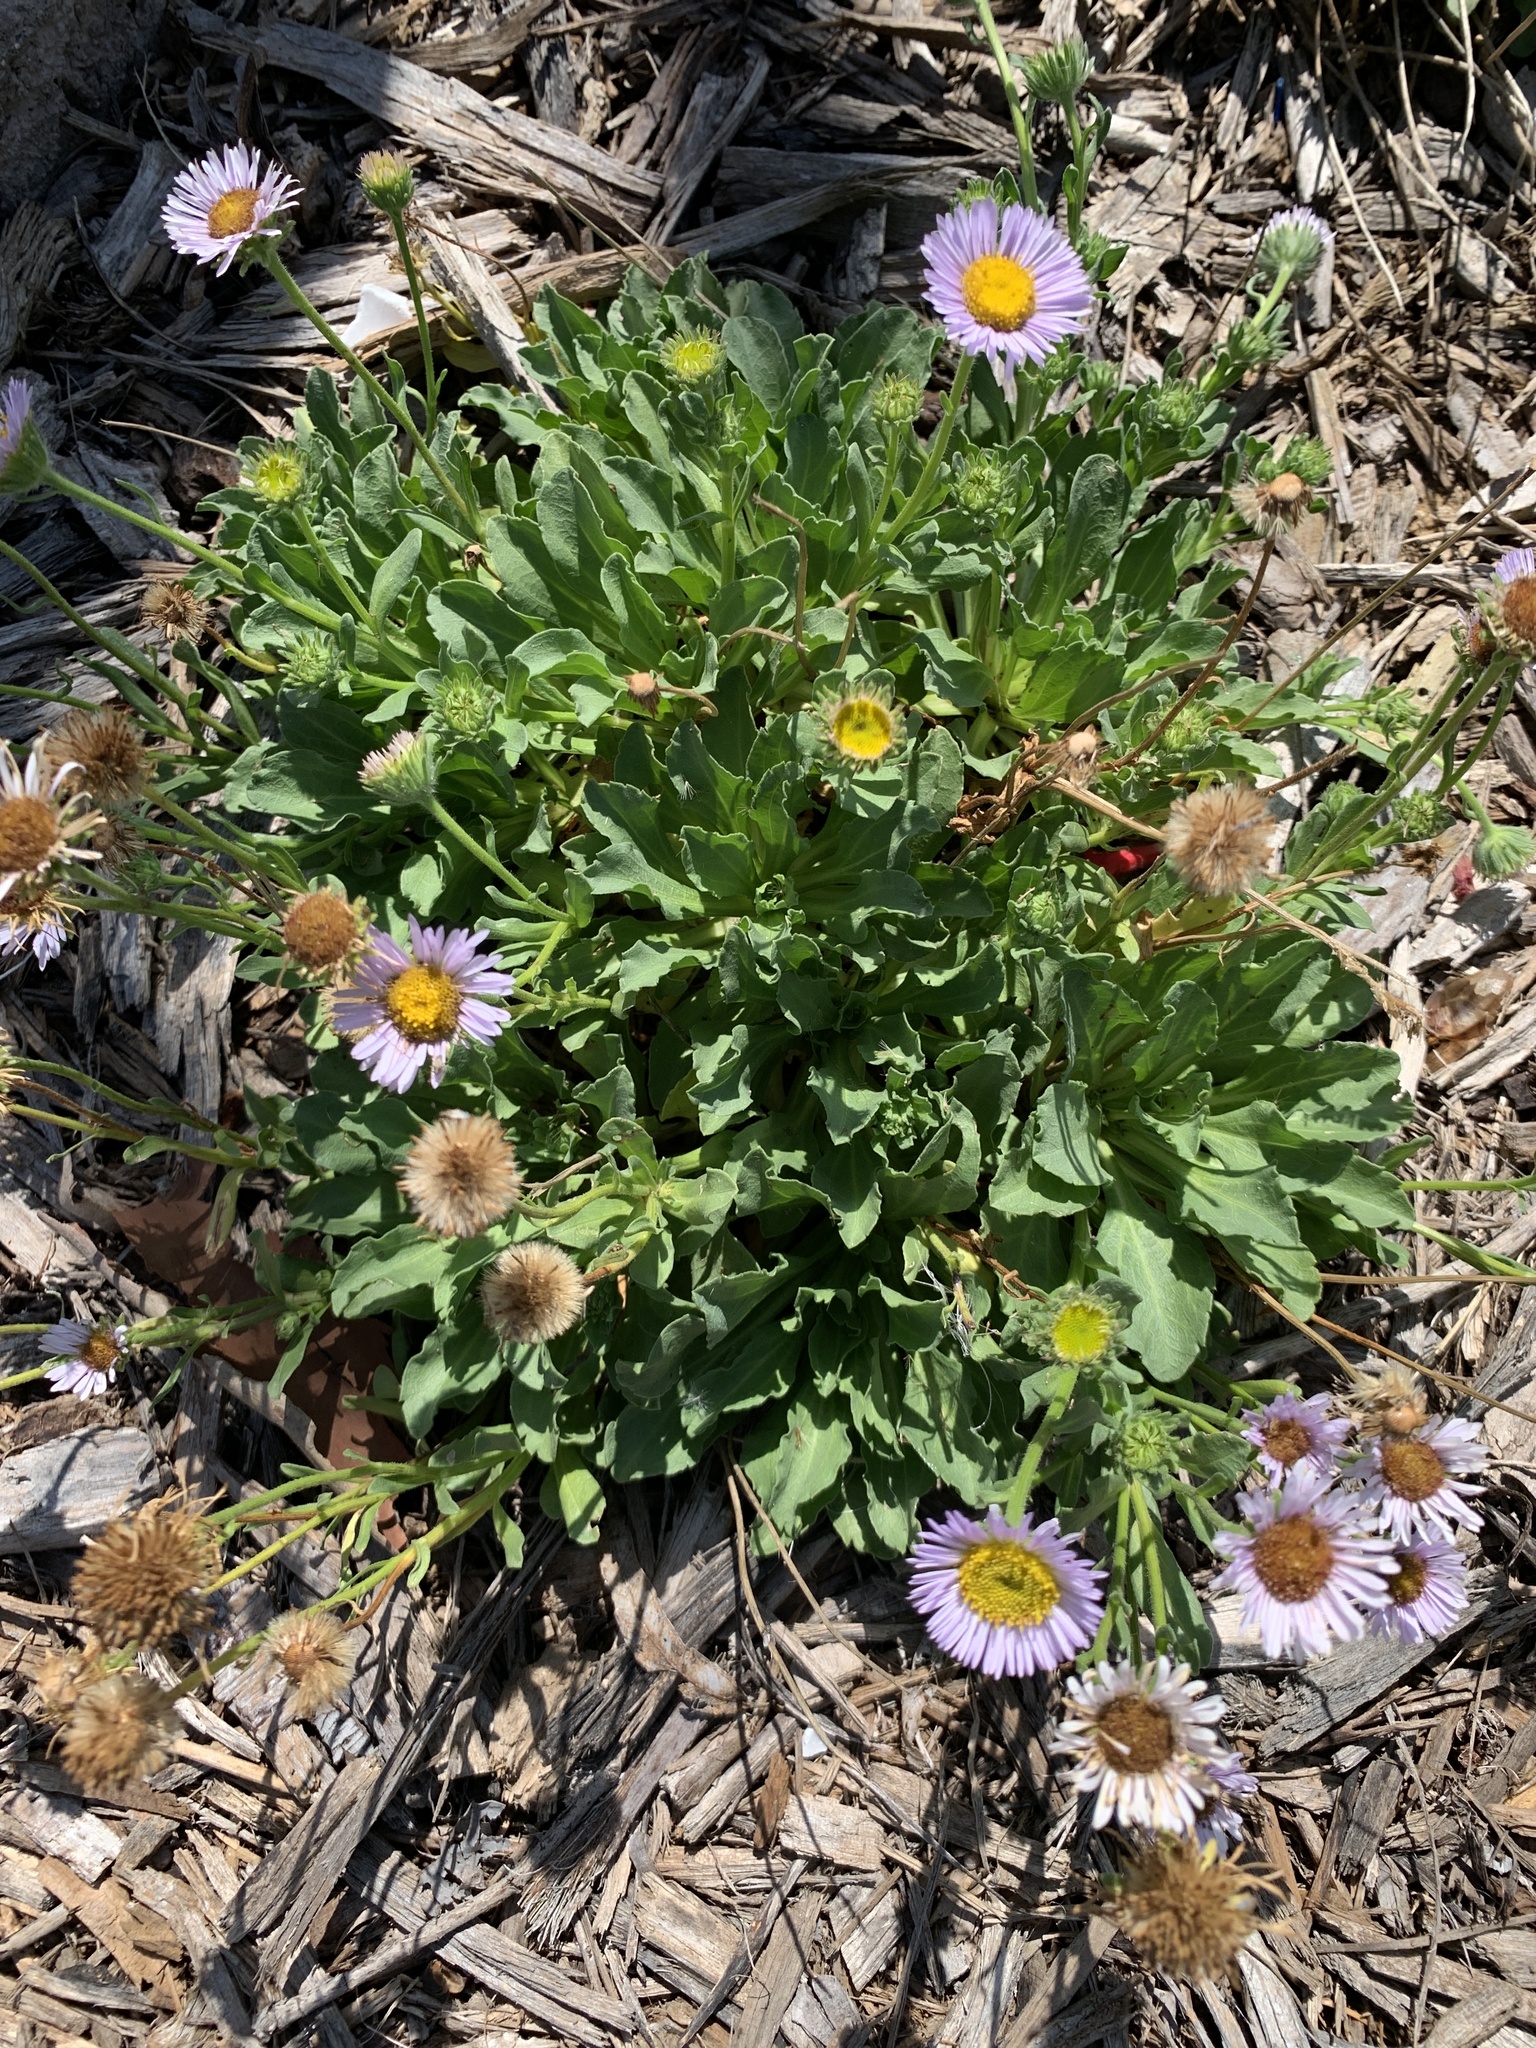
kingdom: Plantae
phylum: Tracheophyta
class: Magnoliopsida
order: Asterales
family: Asteraceae
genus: Erigeron
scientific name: Erigeron glaucus
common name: Seaside daisy
